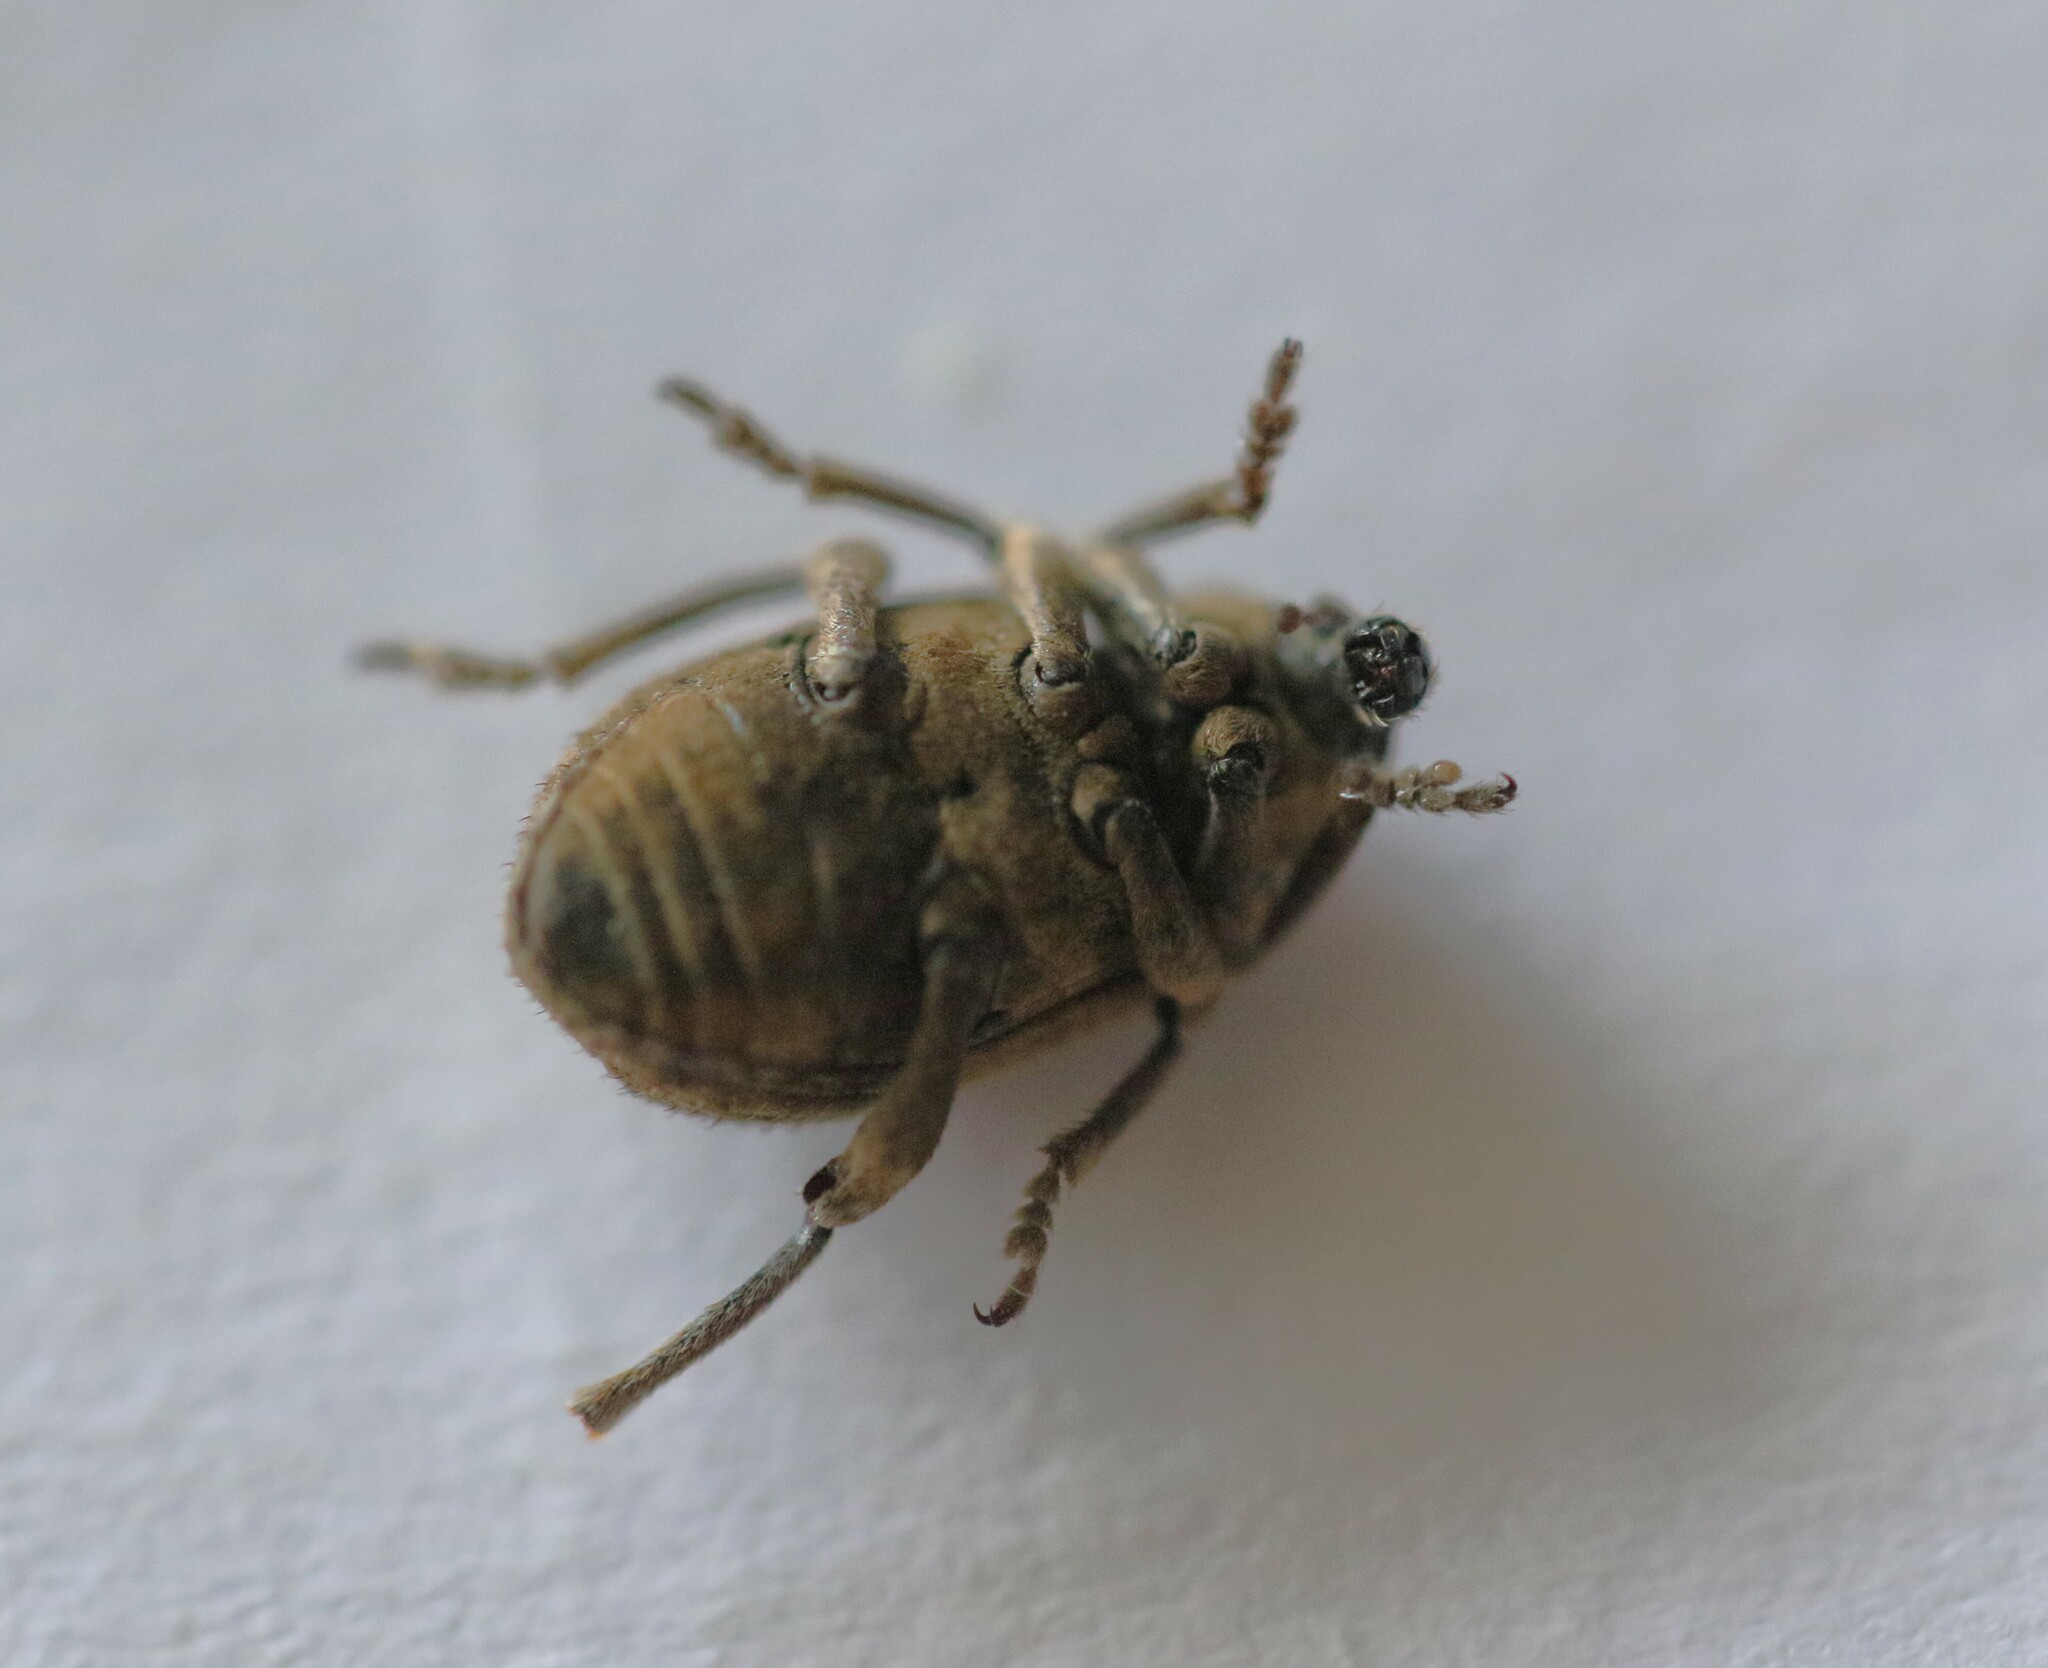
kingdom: Animalia
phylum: Arthropoda
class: Insecta
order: Coleoptera
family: Curculionidae
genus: Brachypera
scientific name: Brachypera zoilus
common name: Clover leaf weevil
